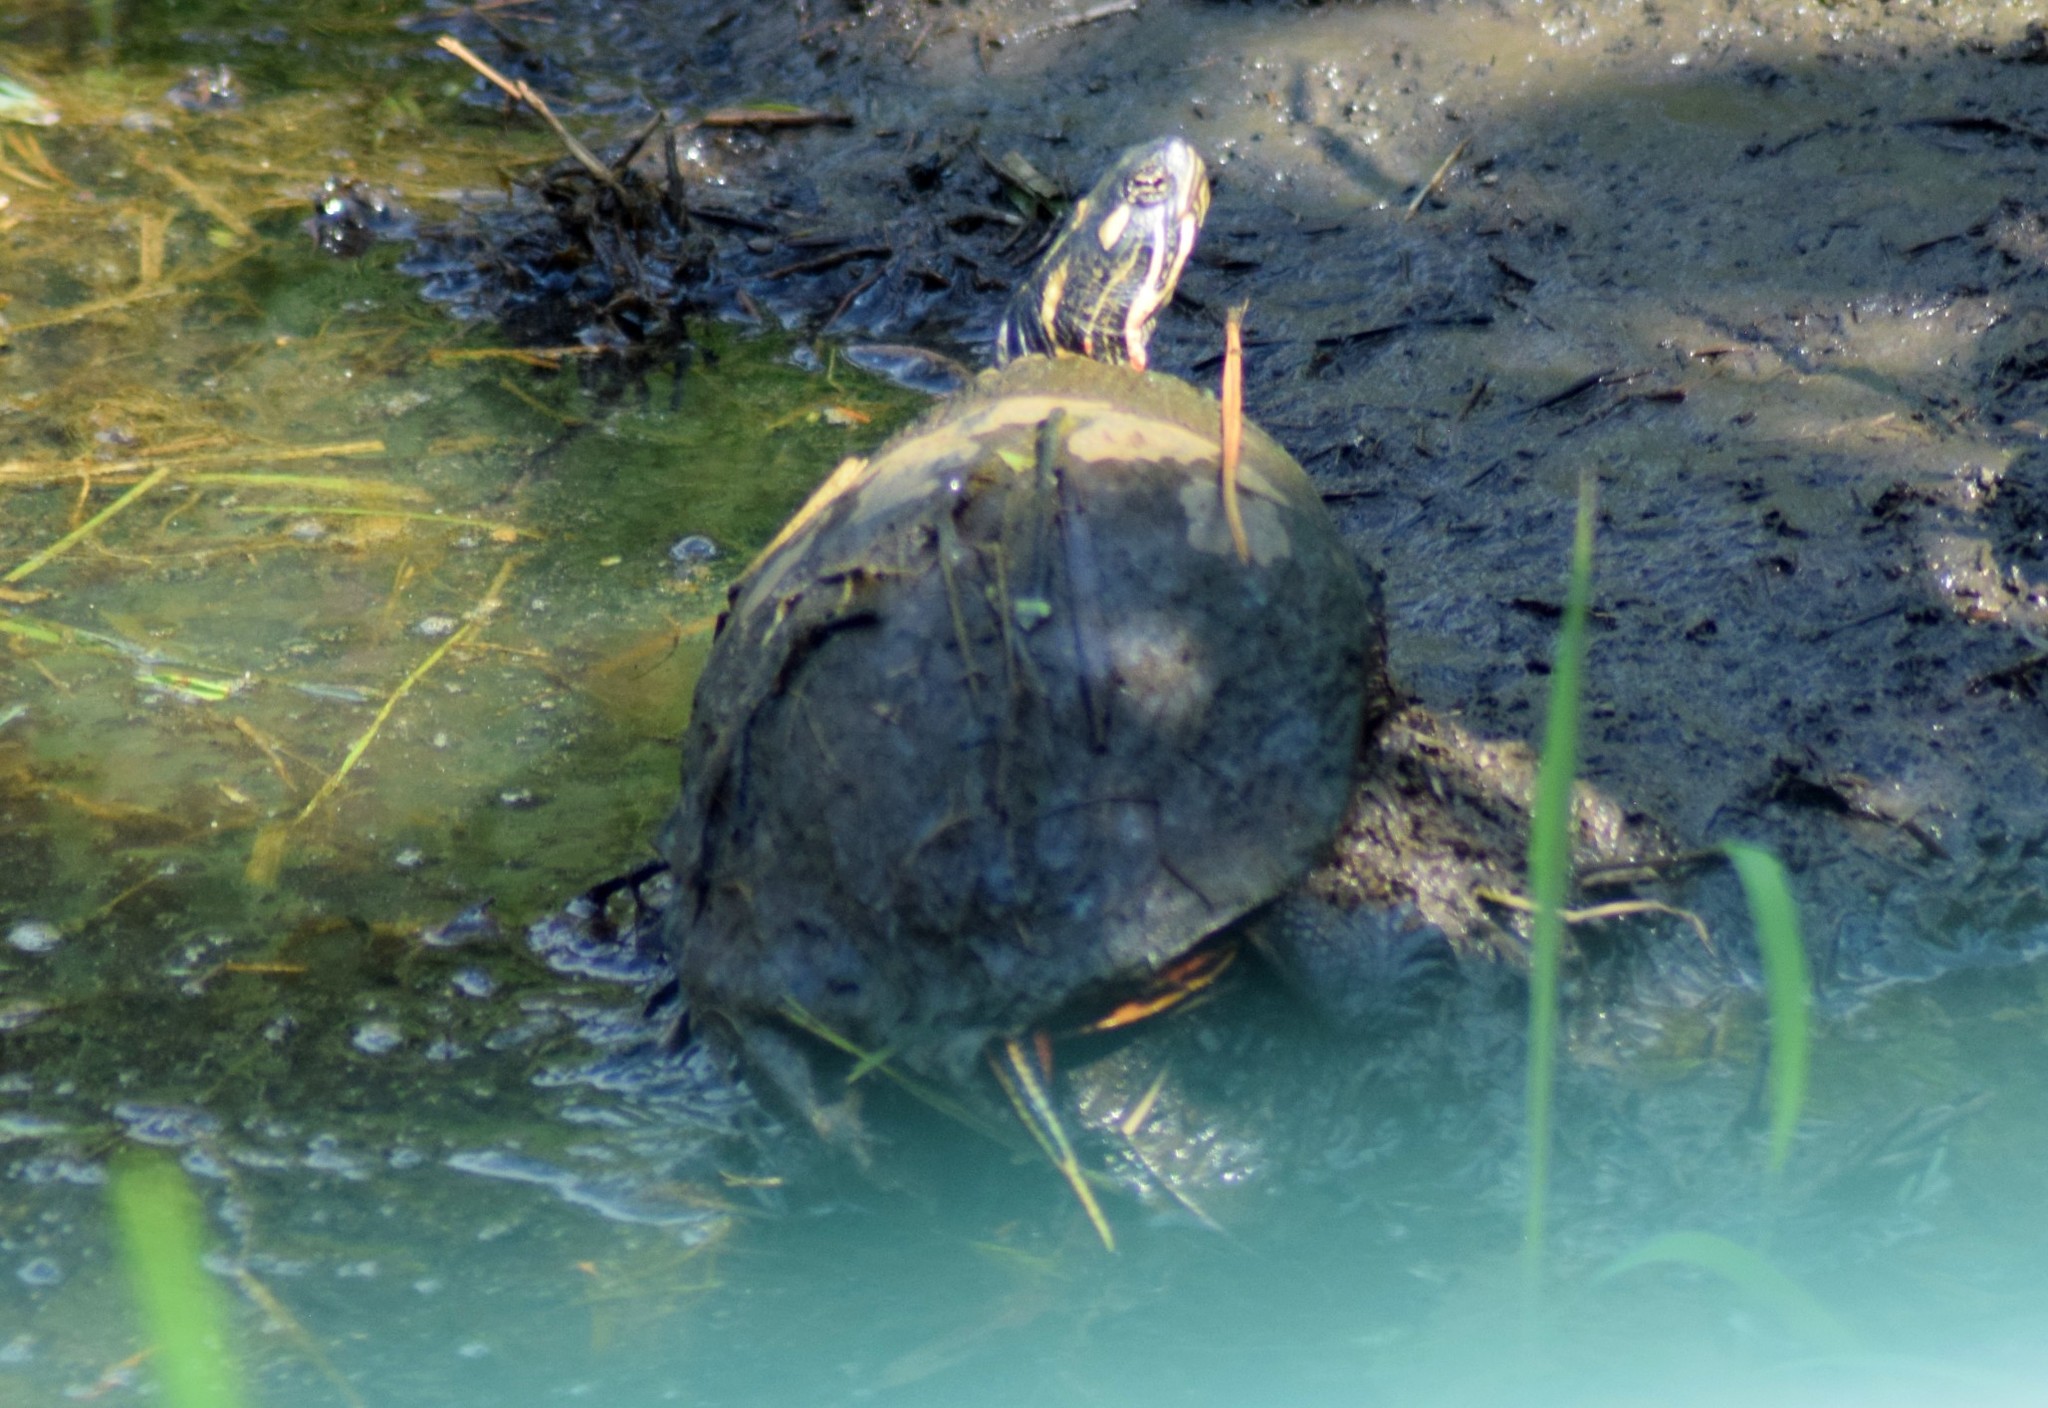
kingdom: Animalia
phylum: Chordata
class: Testudines
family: Emydidae
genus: Chrysemys
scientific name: Chrysemys picta
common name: Painted turtle
